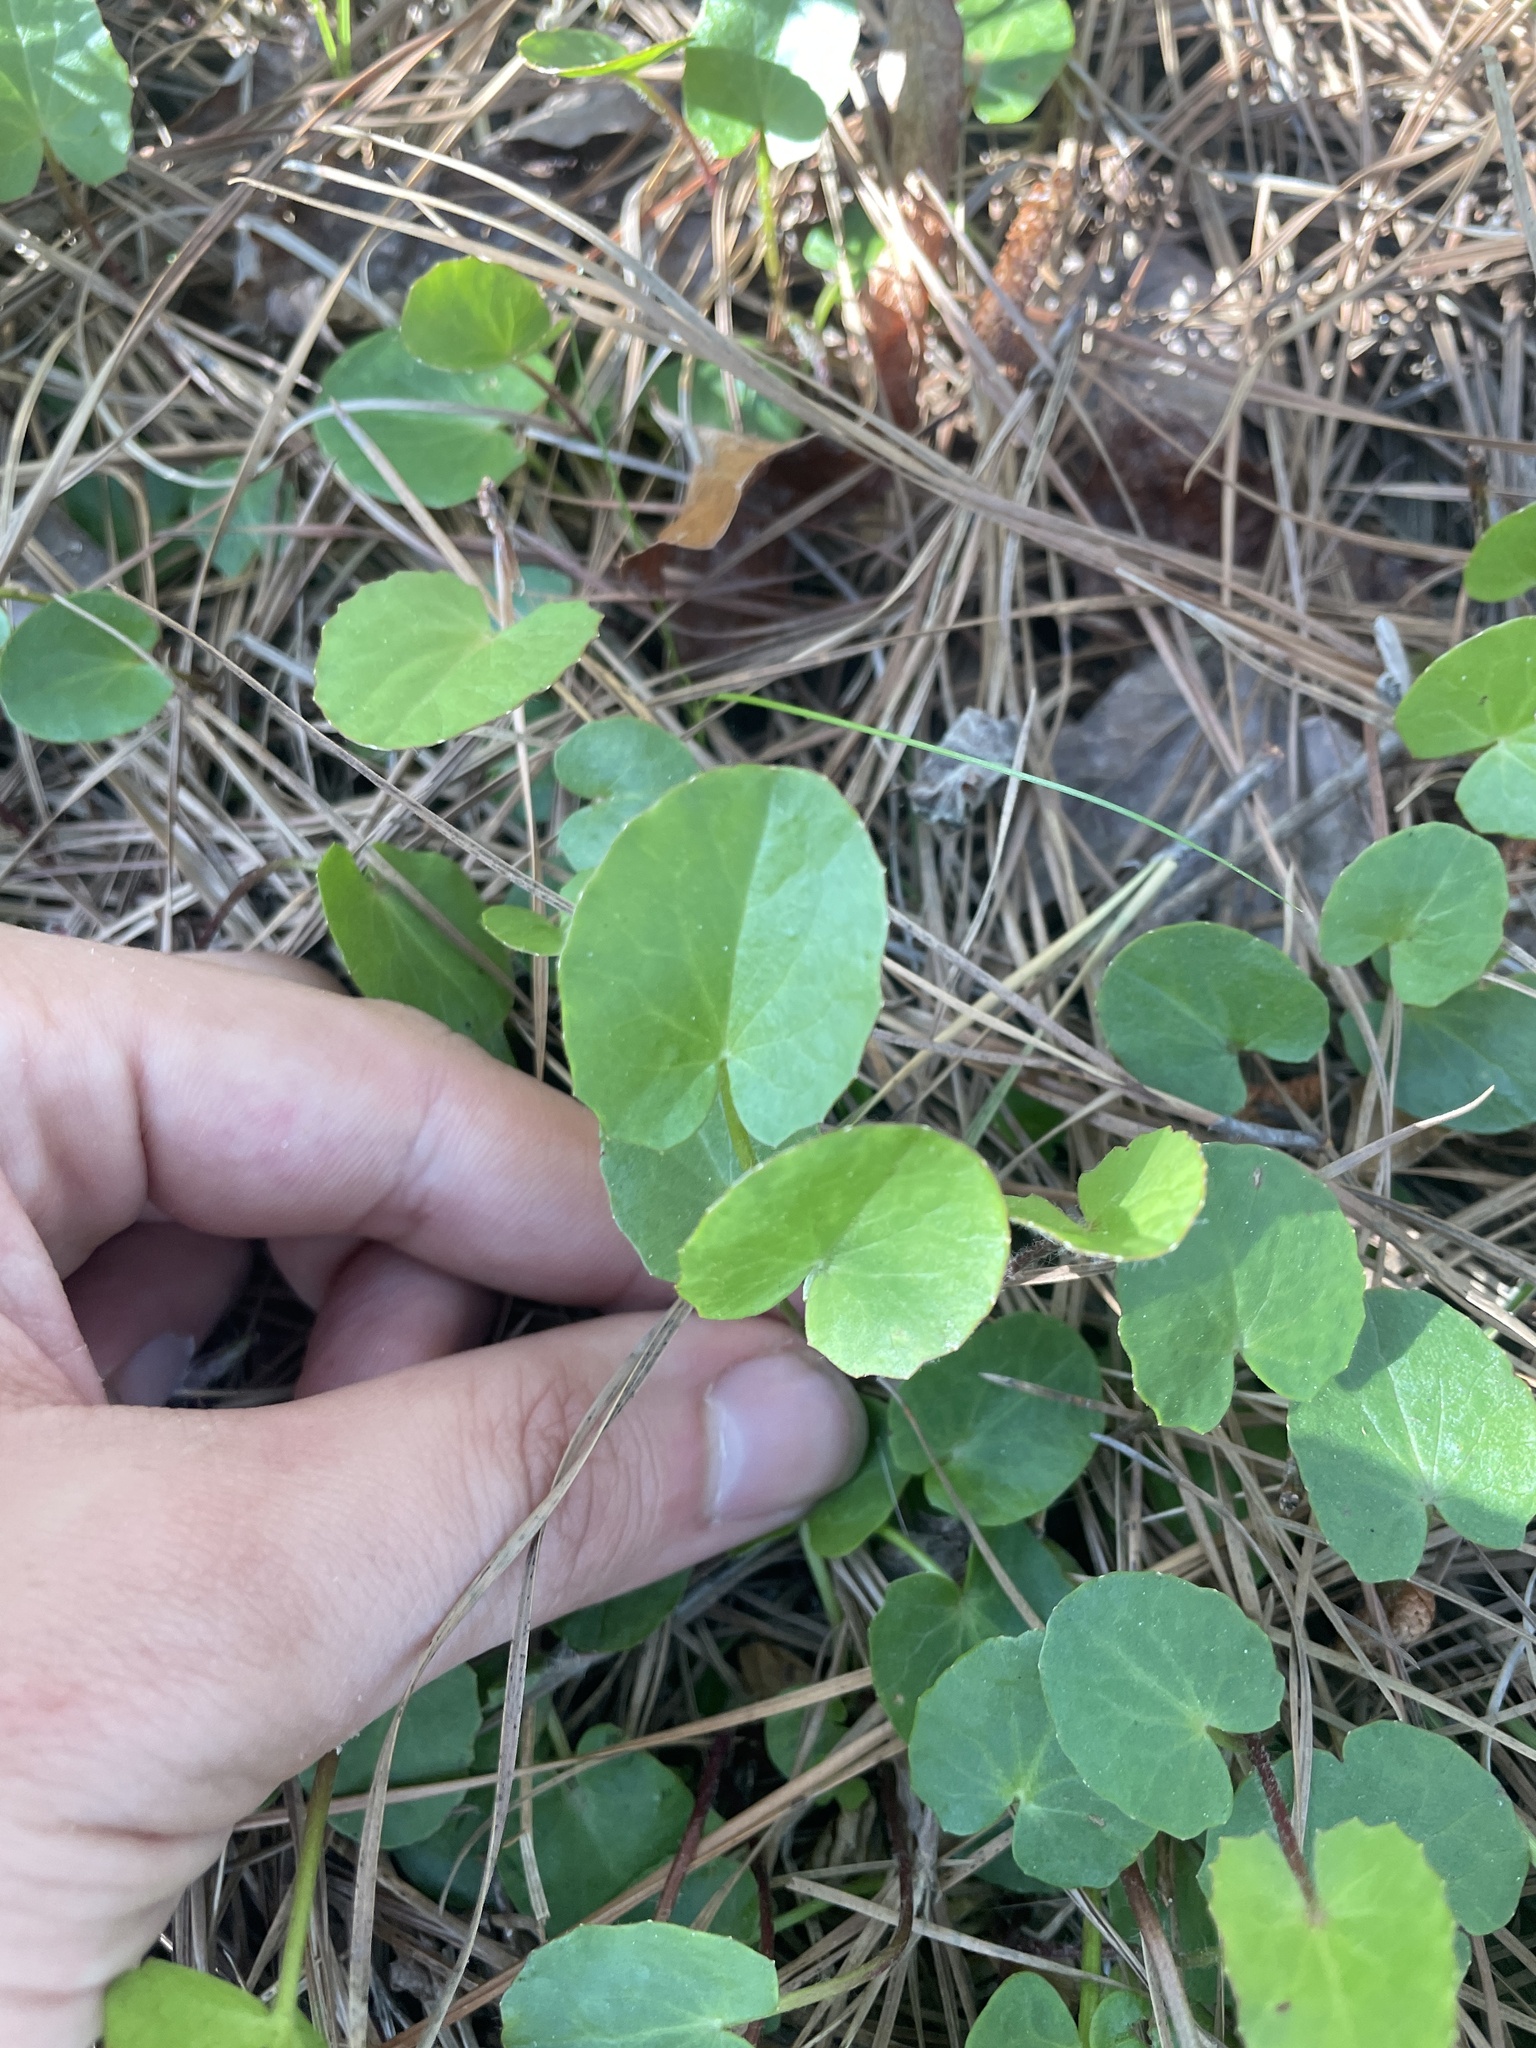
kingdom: Plantae
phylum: Tracheophyta
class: Magnoliopsida
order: Apiales
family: Apiaceae
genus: Centella
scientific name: Centella erecta
